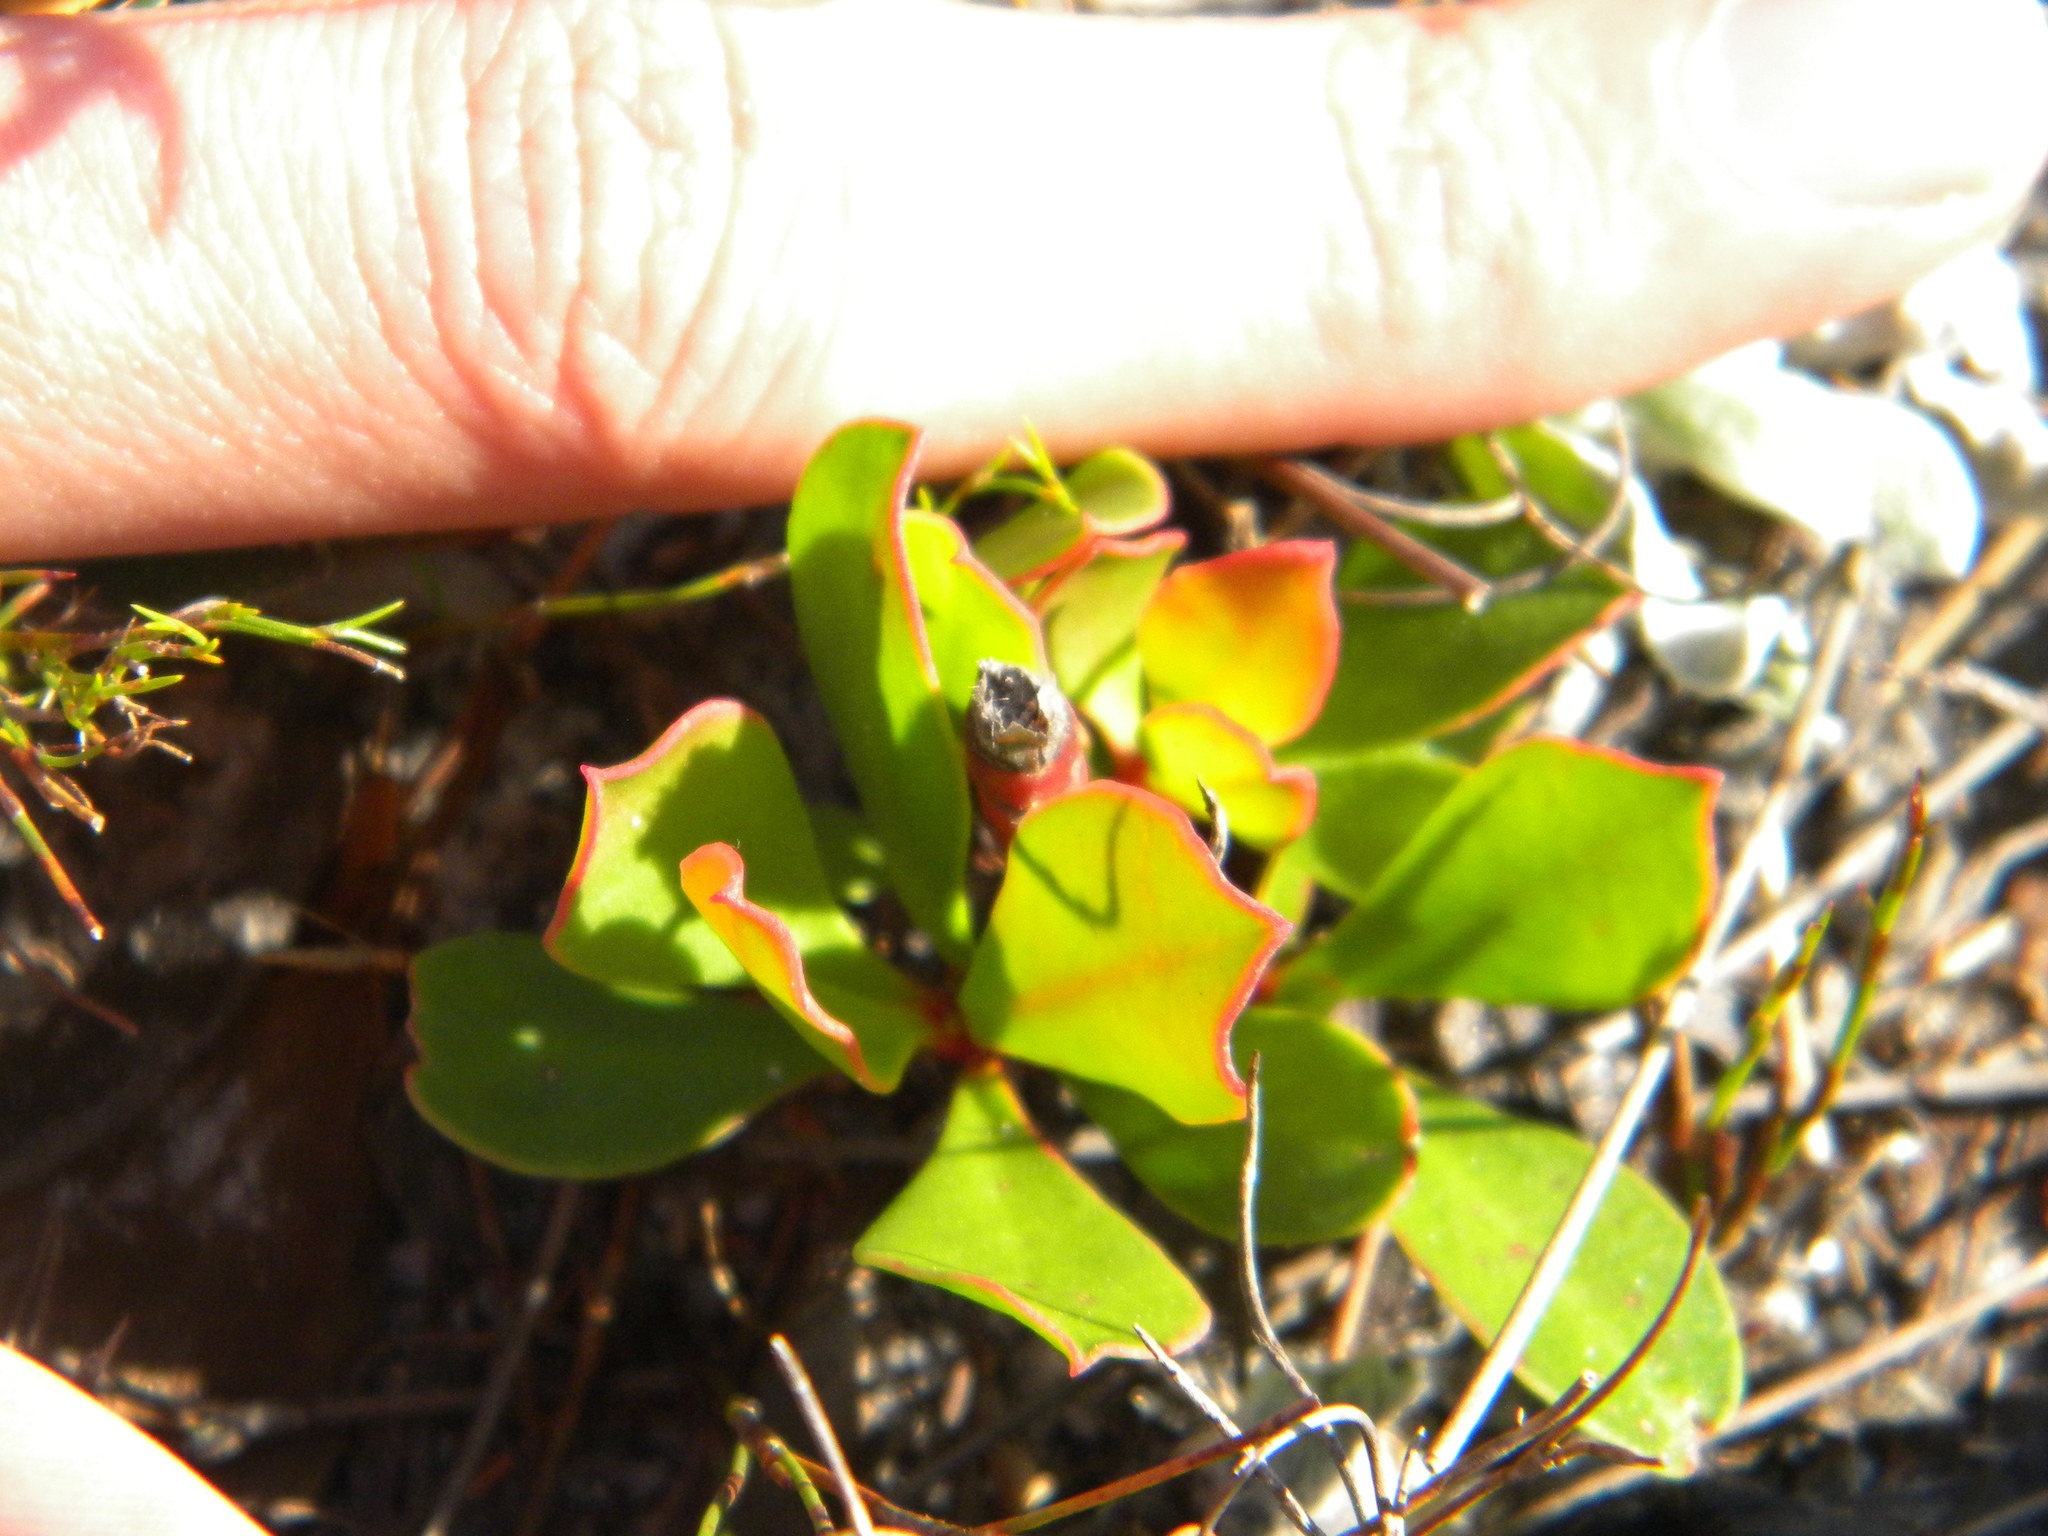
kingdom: Plantae
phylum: Tracheophyta
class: Magnoliopsida
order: Proteales
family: Proteaceae
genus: Protea
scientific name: Protea speciosa
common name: Brown-beard sugarbush
